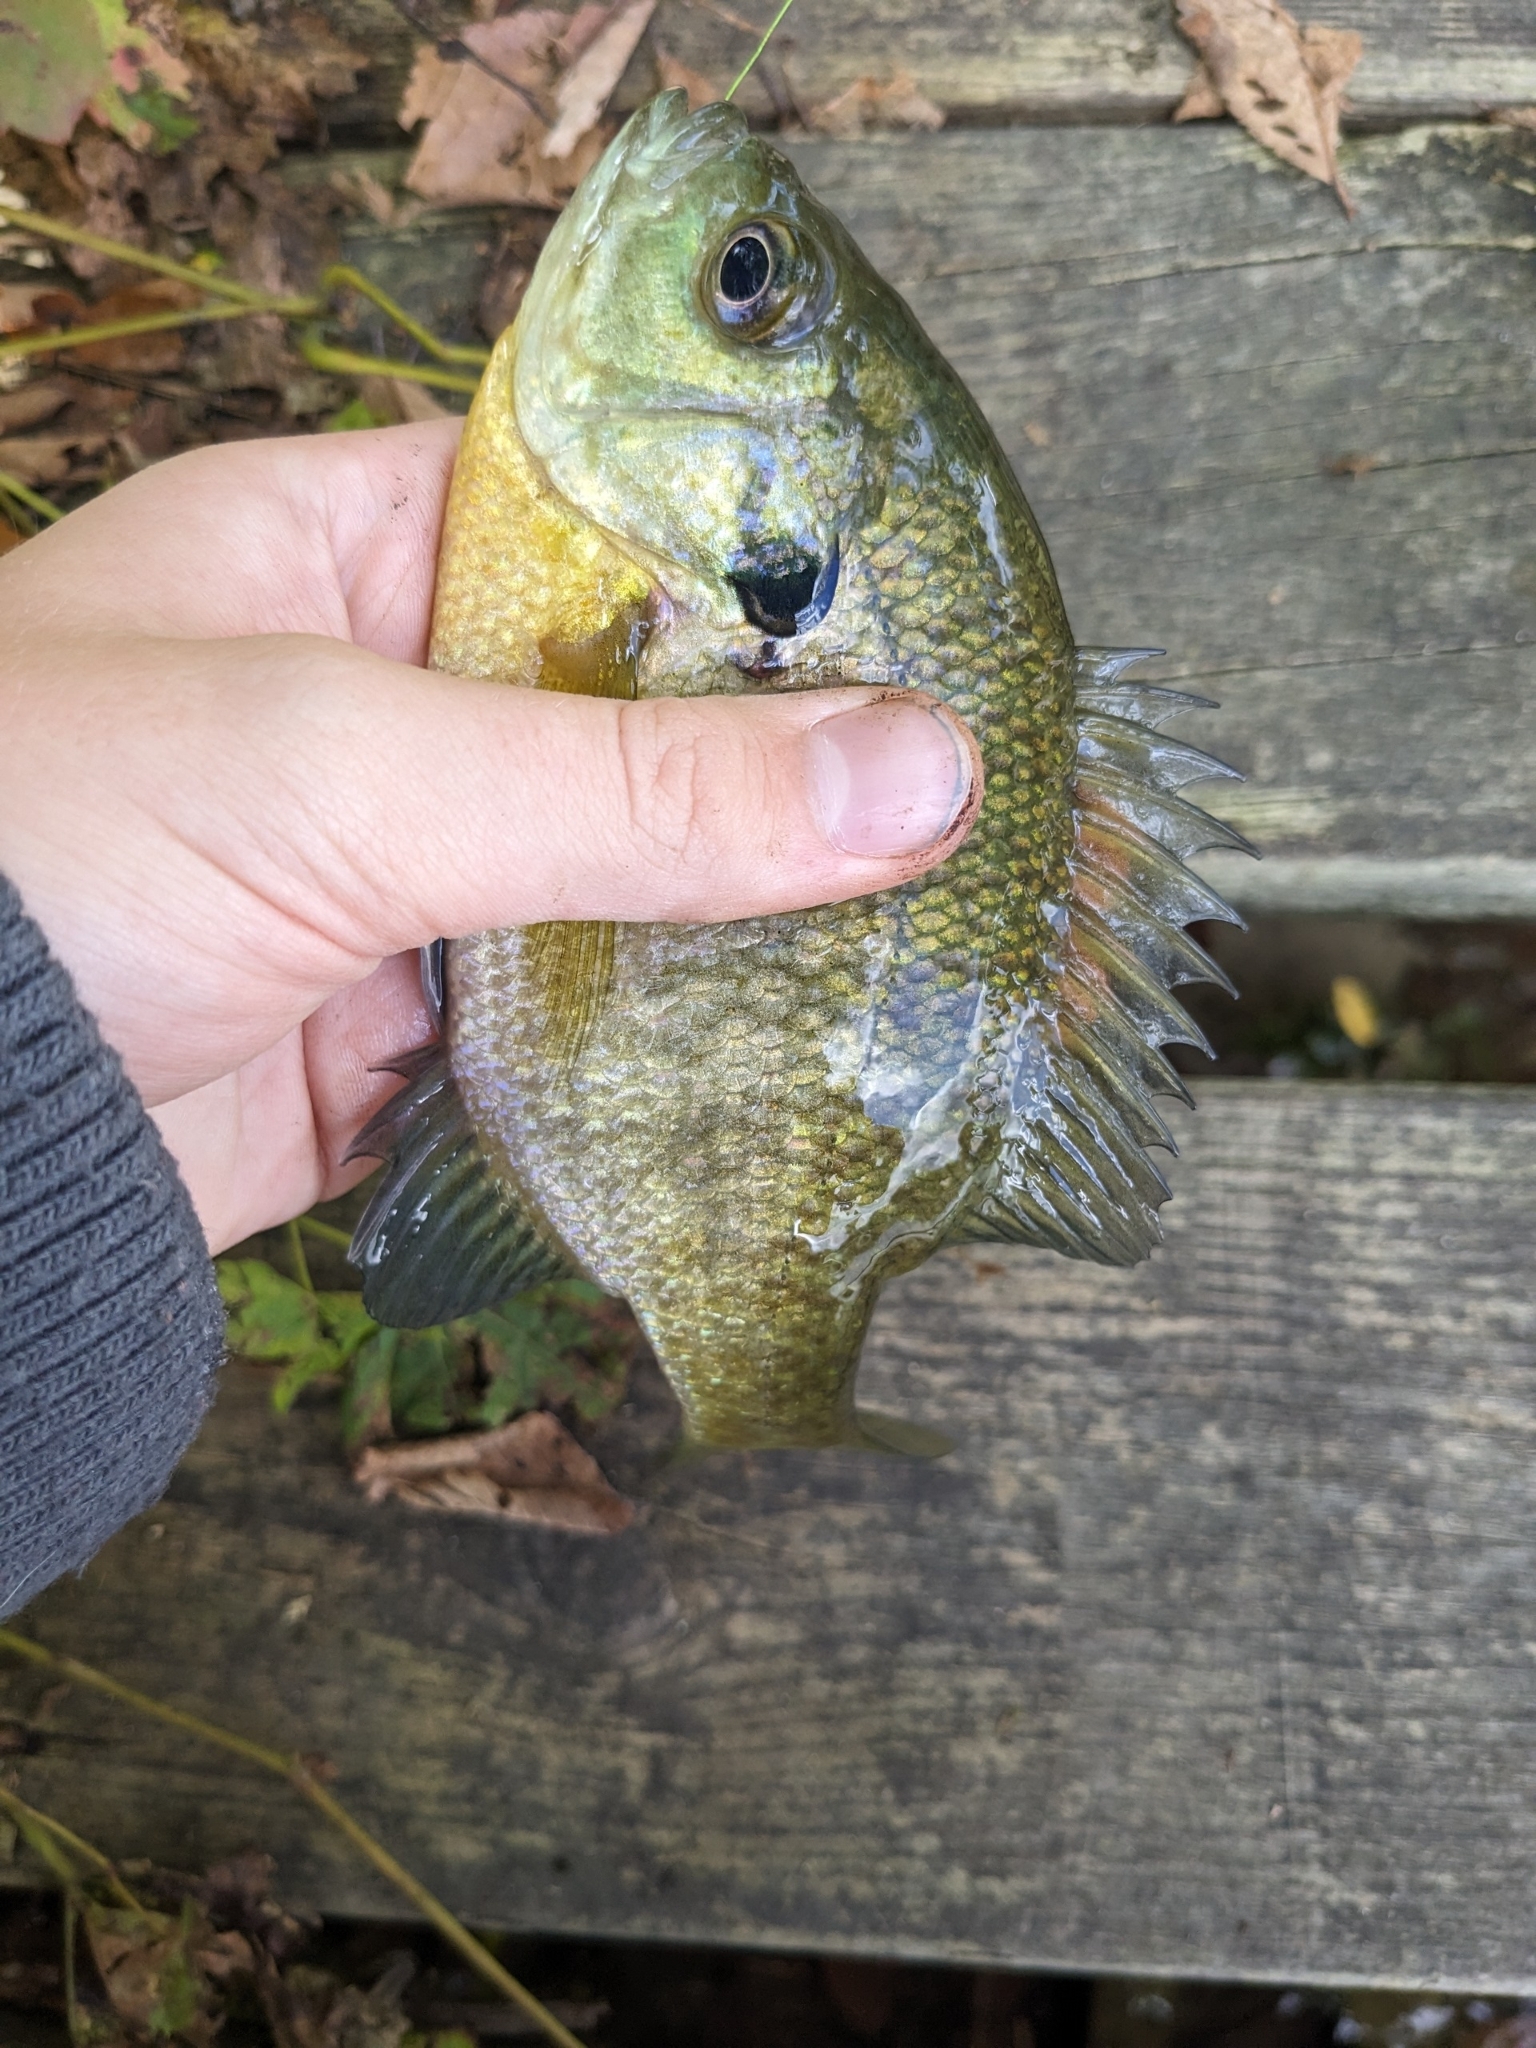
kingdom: Animalia
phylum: Chordata
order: Perciformes
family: Centrarchidae
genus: Lepomis
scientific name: Lepomis macrochirus
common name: Bluegill
